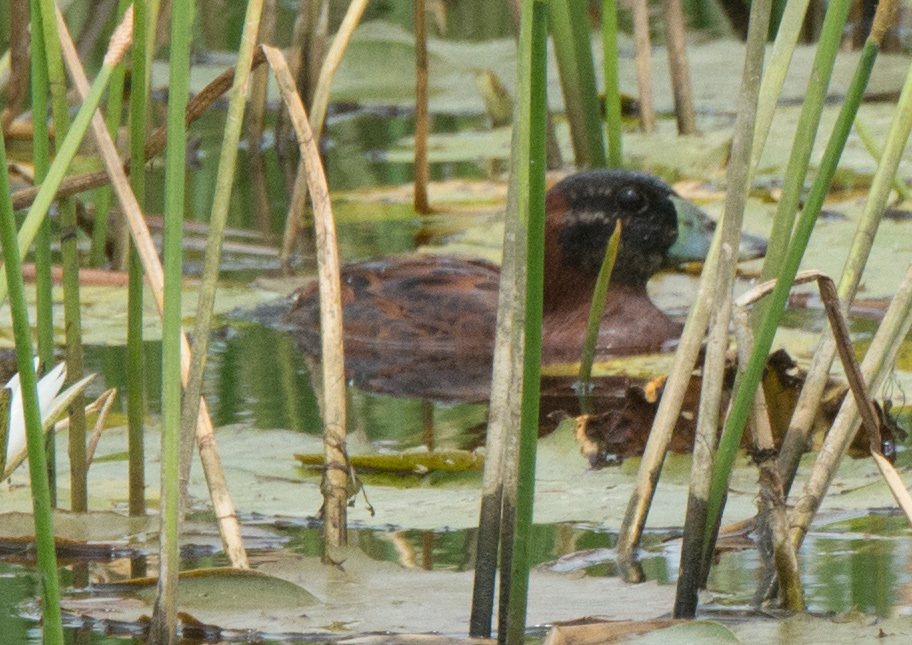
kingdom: Animalia
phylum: Chordata
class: Aves
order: Anseriformes
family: Anatidae
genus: Nomonyx
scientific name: Nomonyx dominicus
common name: Masked duck
